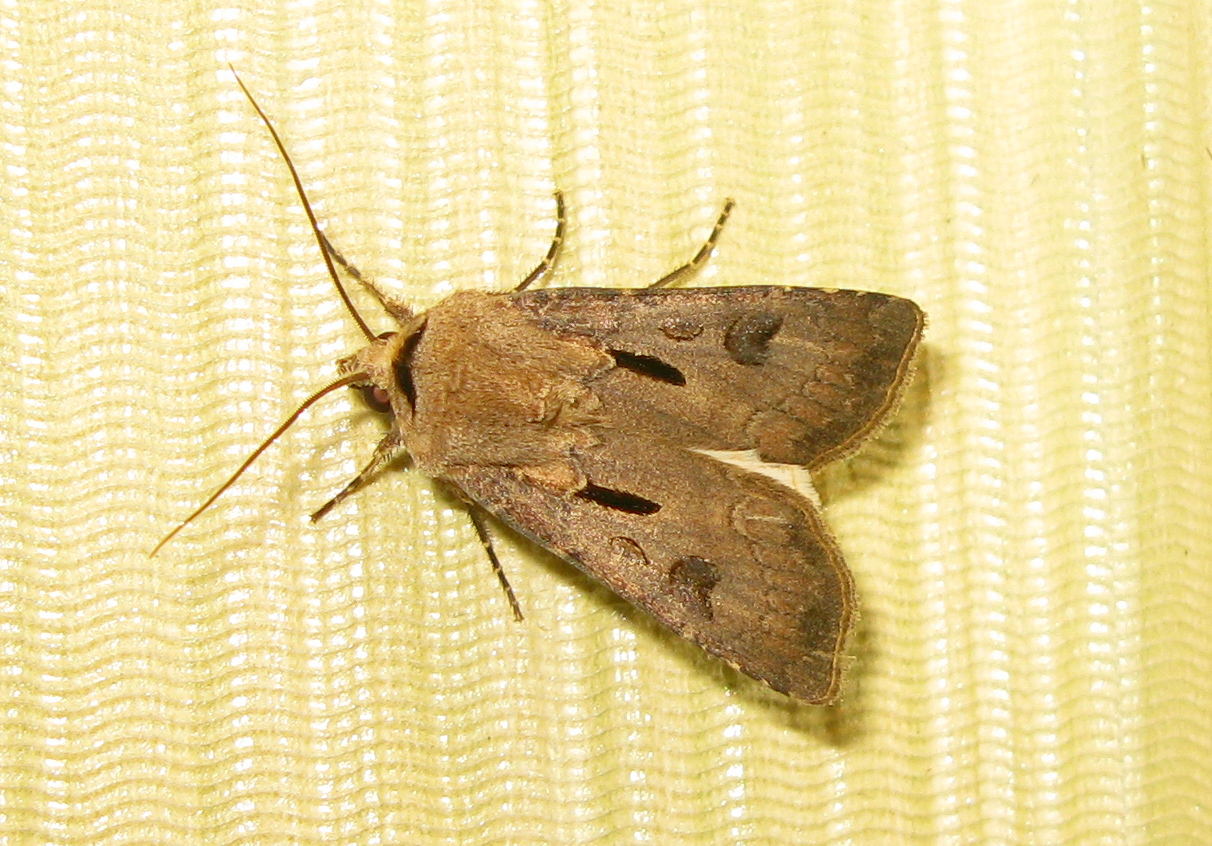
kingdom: Animalia
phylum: Arthropoda
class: Insecta
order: Lepidoptera
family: Noctuidae
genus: Agrotis
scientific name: Agrotis exclamationis
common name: Heart and dart
